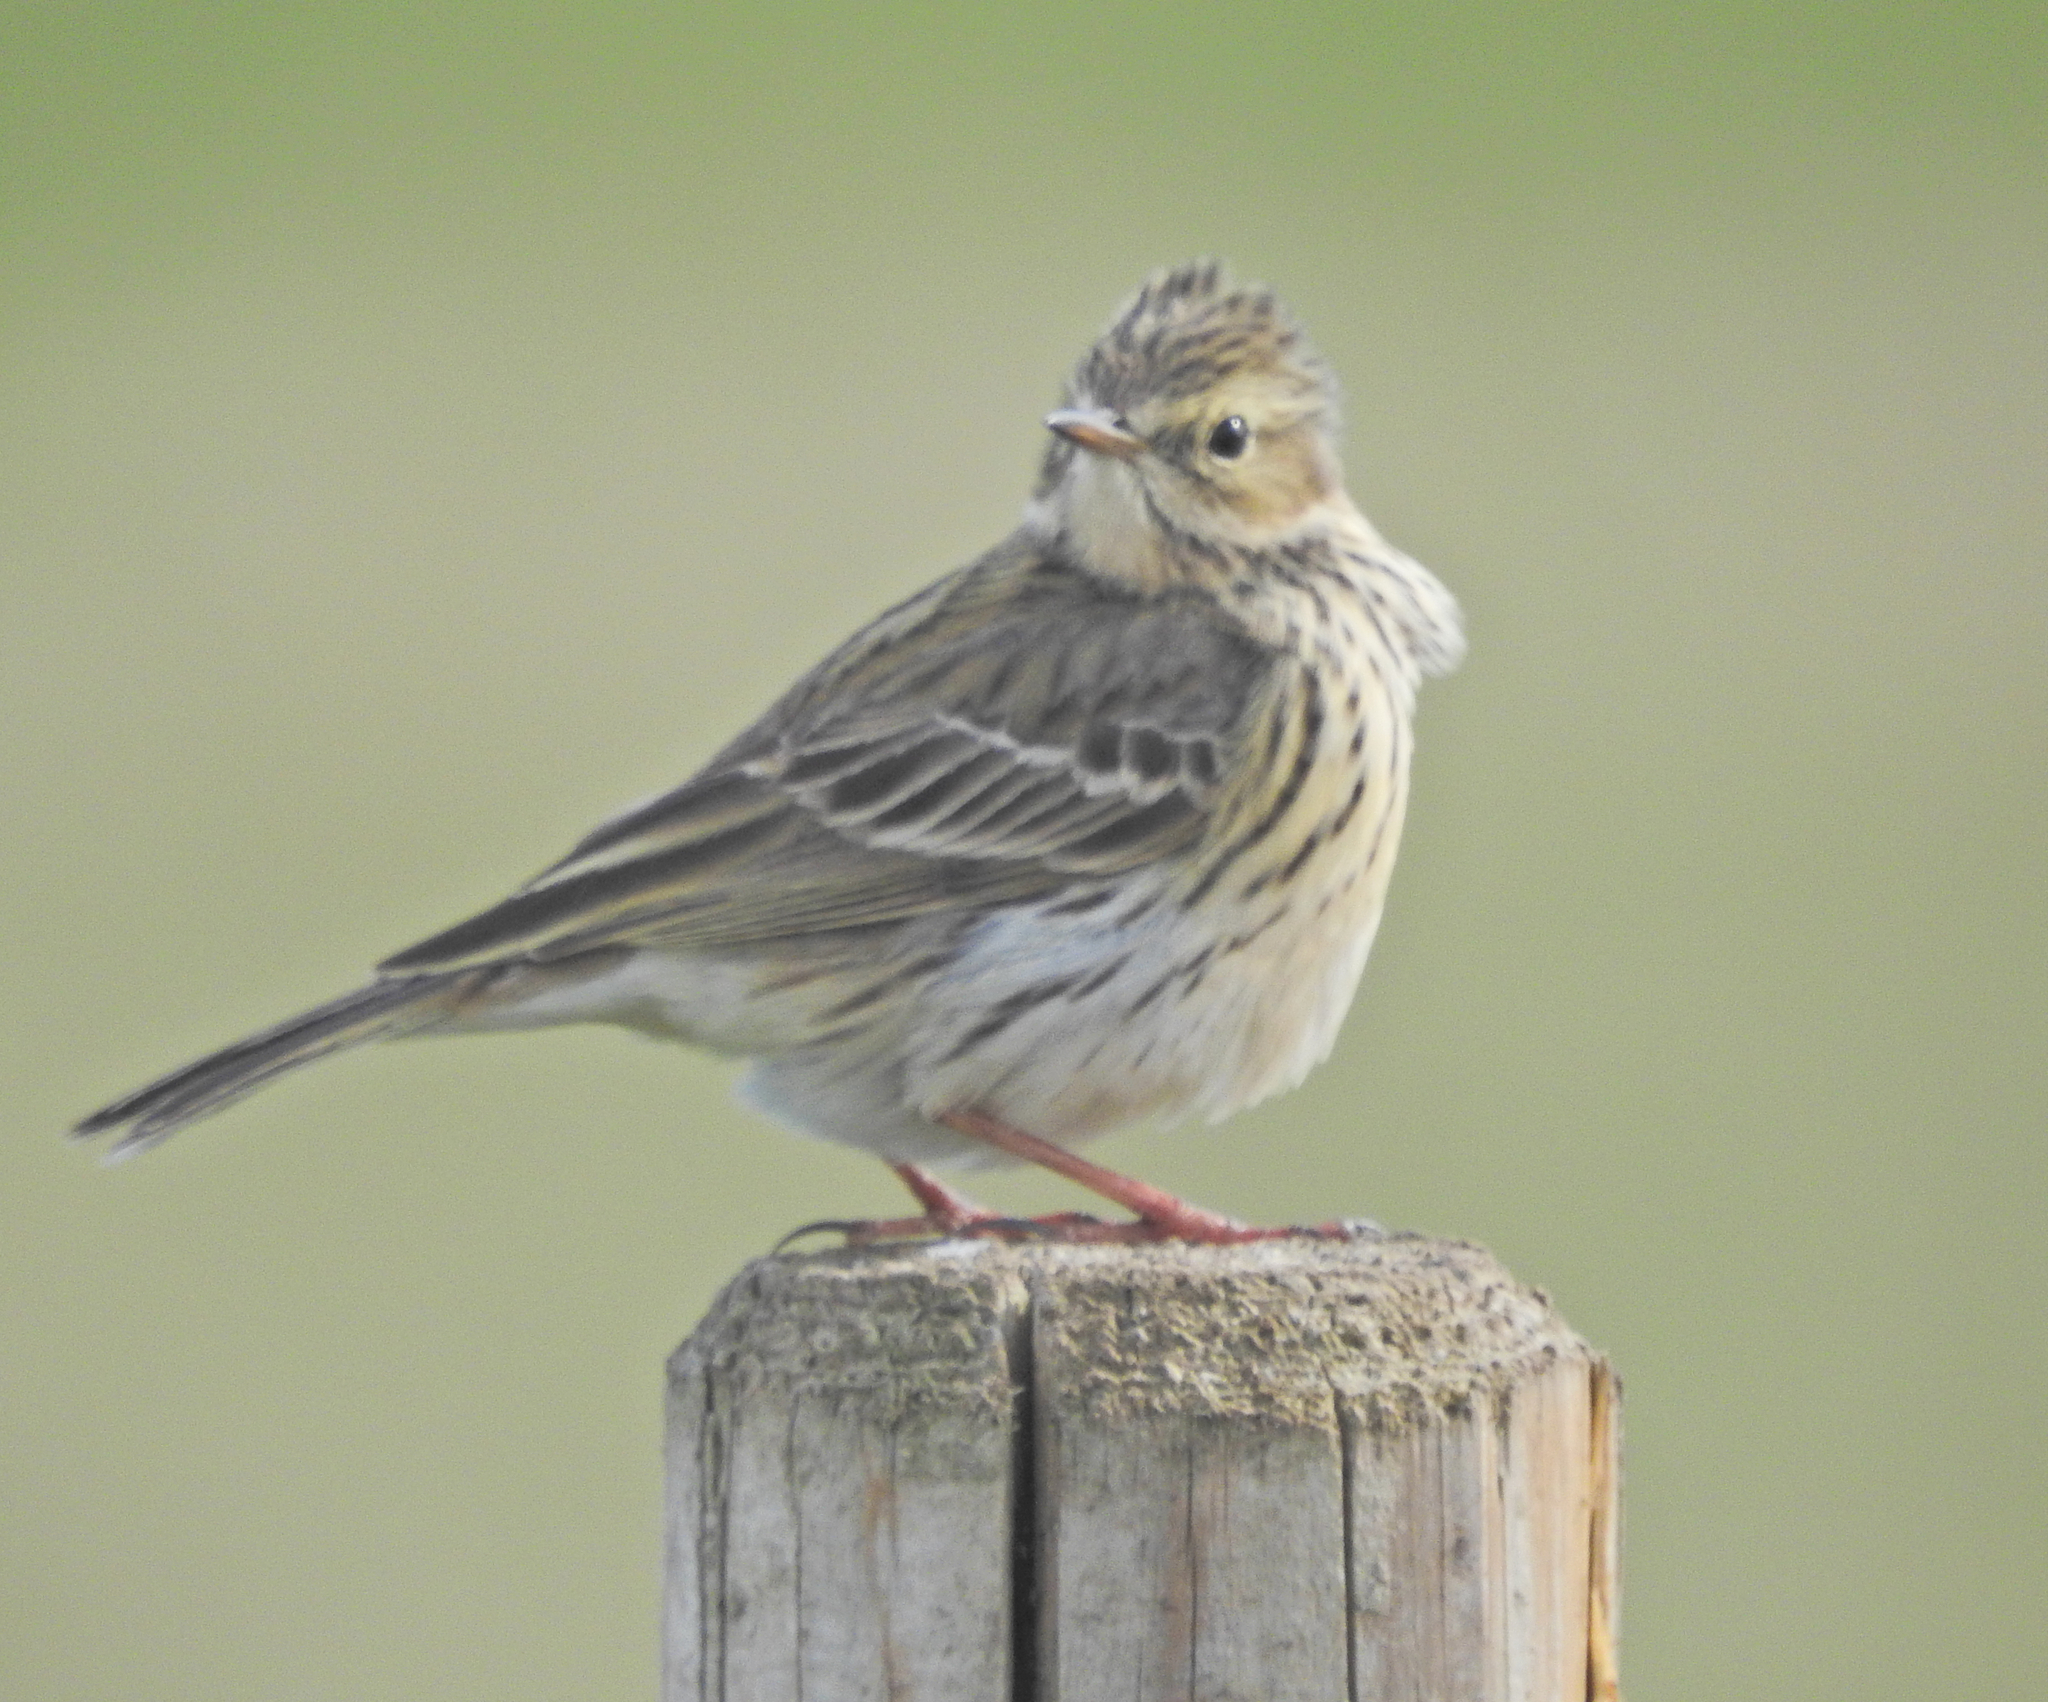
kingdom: Animalia
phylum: Chordata
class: Aves
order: Passeriformes
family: Motacillidae
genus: Anthus
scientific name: Anthus pratensis
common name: Meadow pipit
